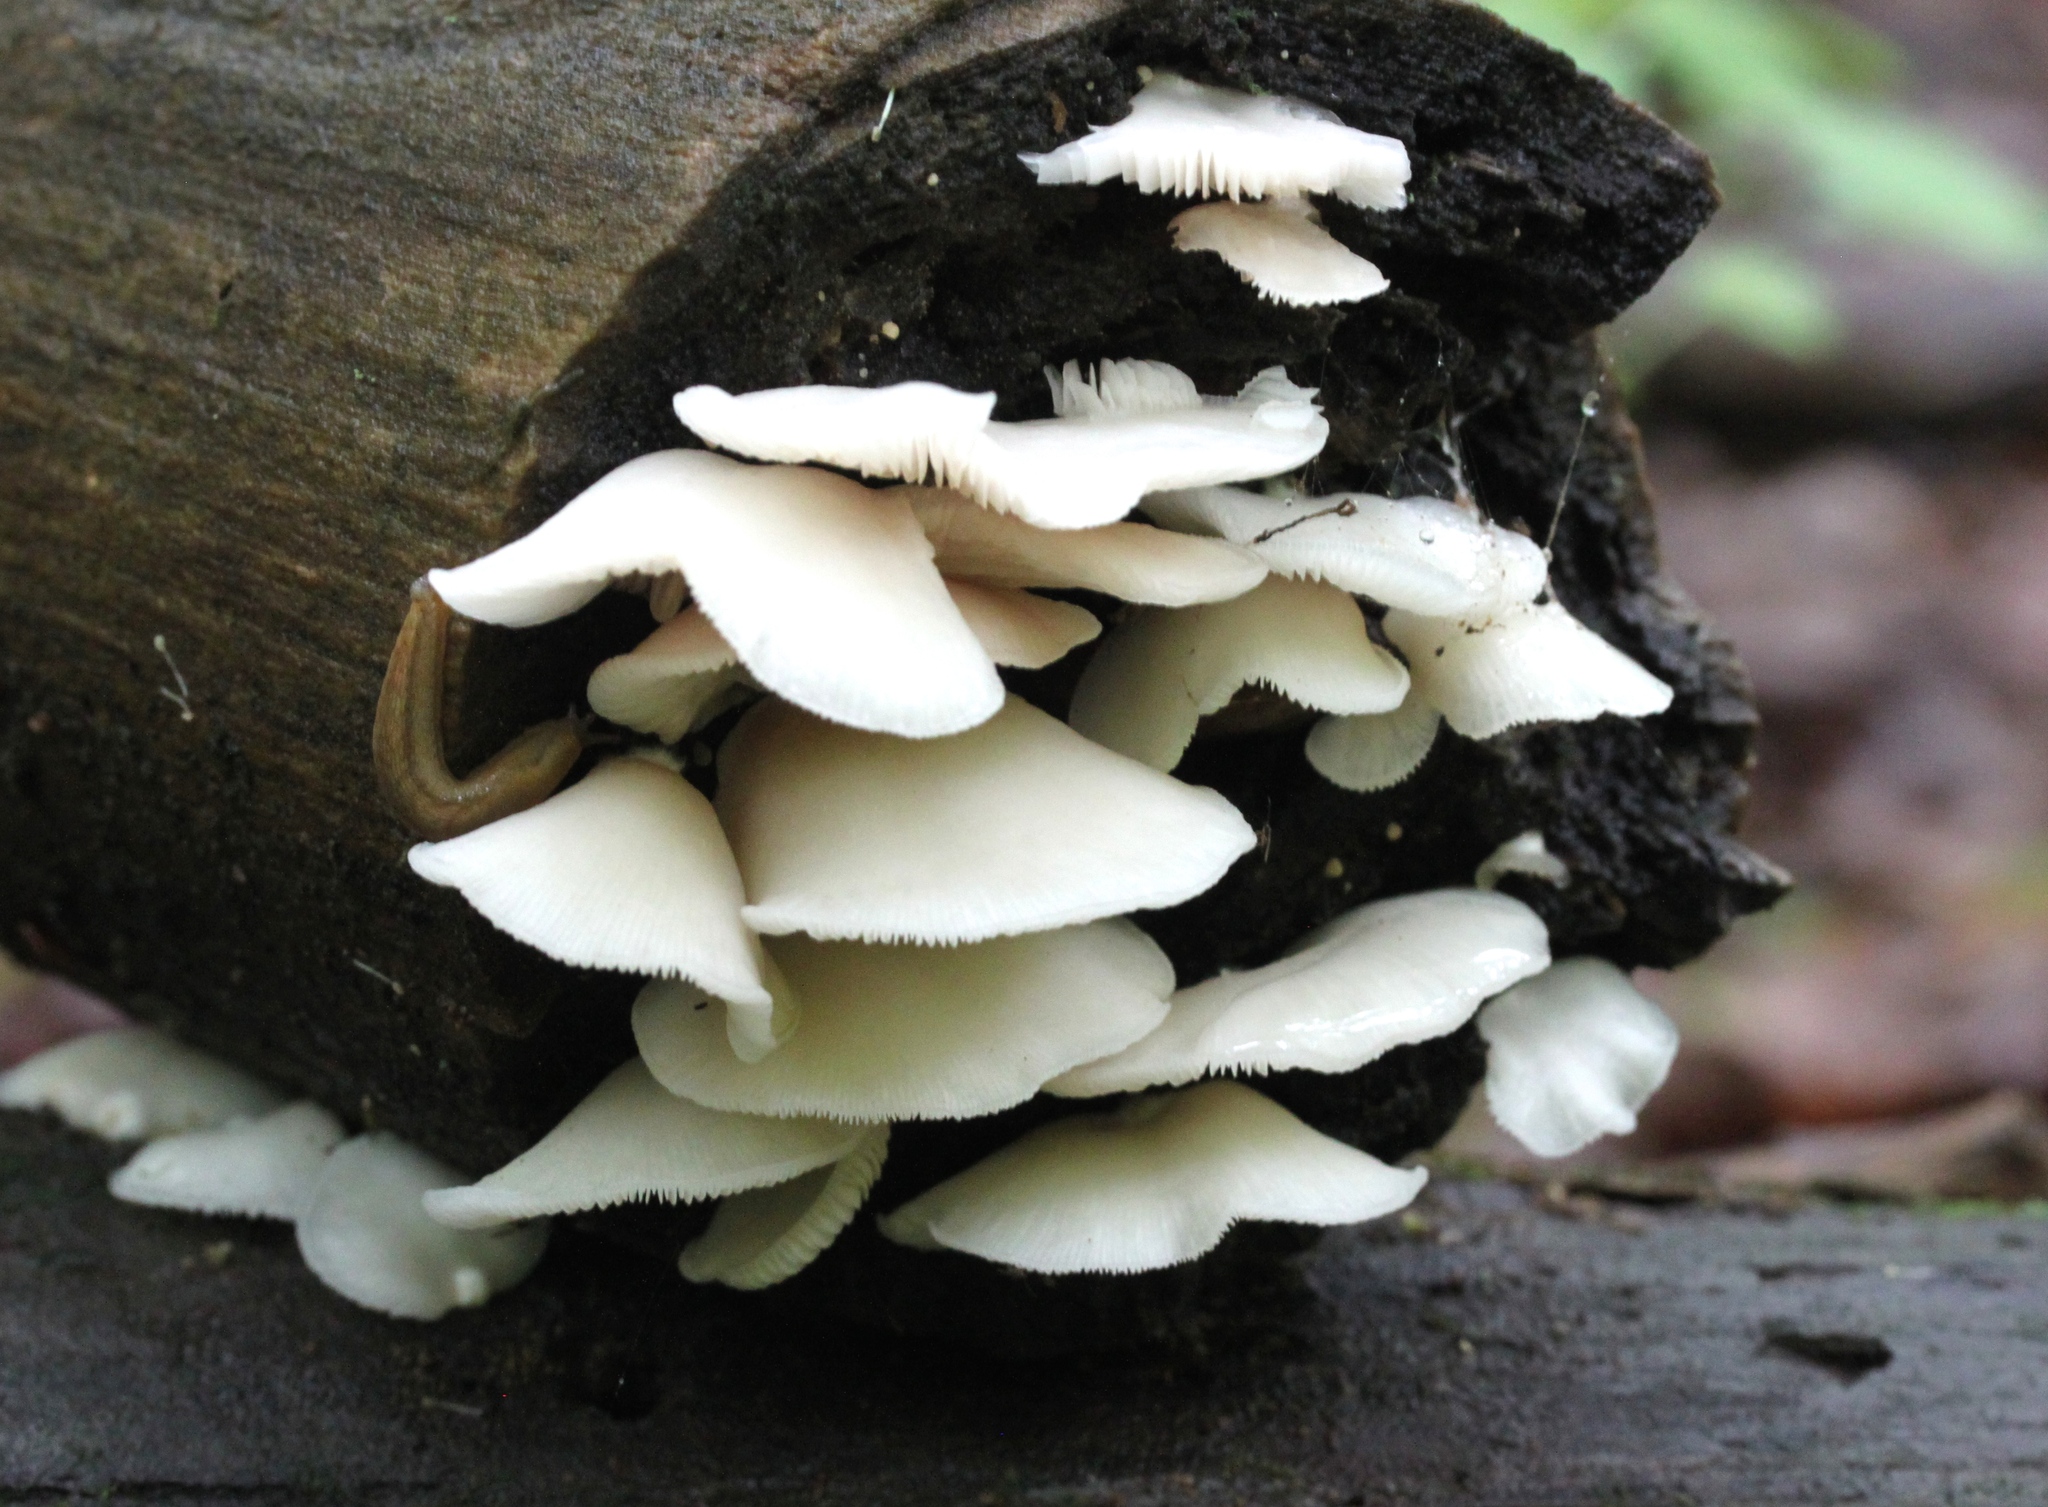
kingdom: Fungi
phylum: Basidiomycota
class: Agaricomycetes
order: Agaricales
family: Crepidotaceae
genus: Crepidotus
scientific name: Crepidotus applanatus
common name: Flat crep
